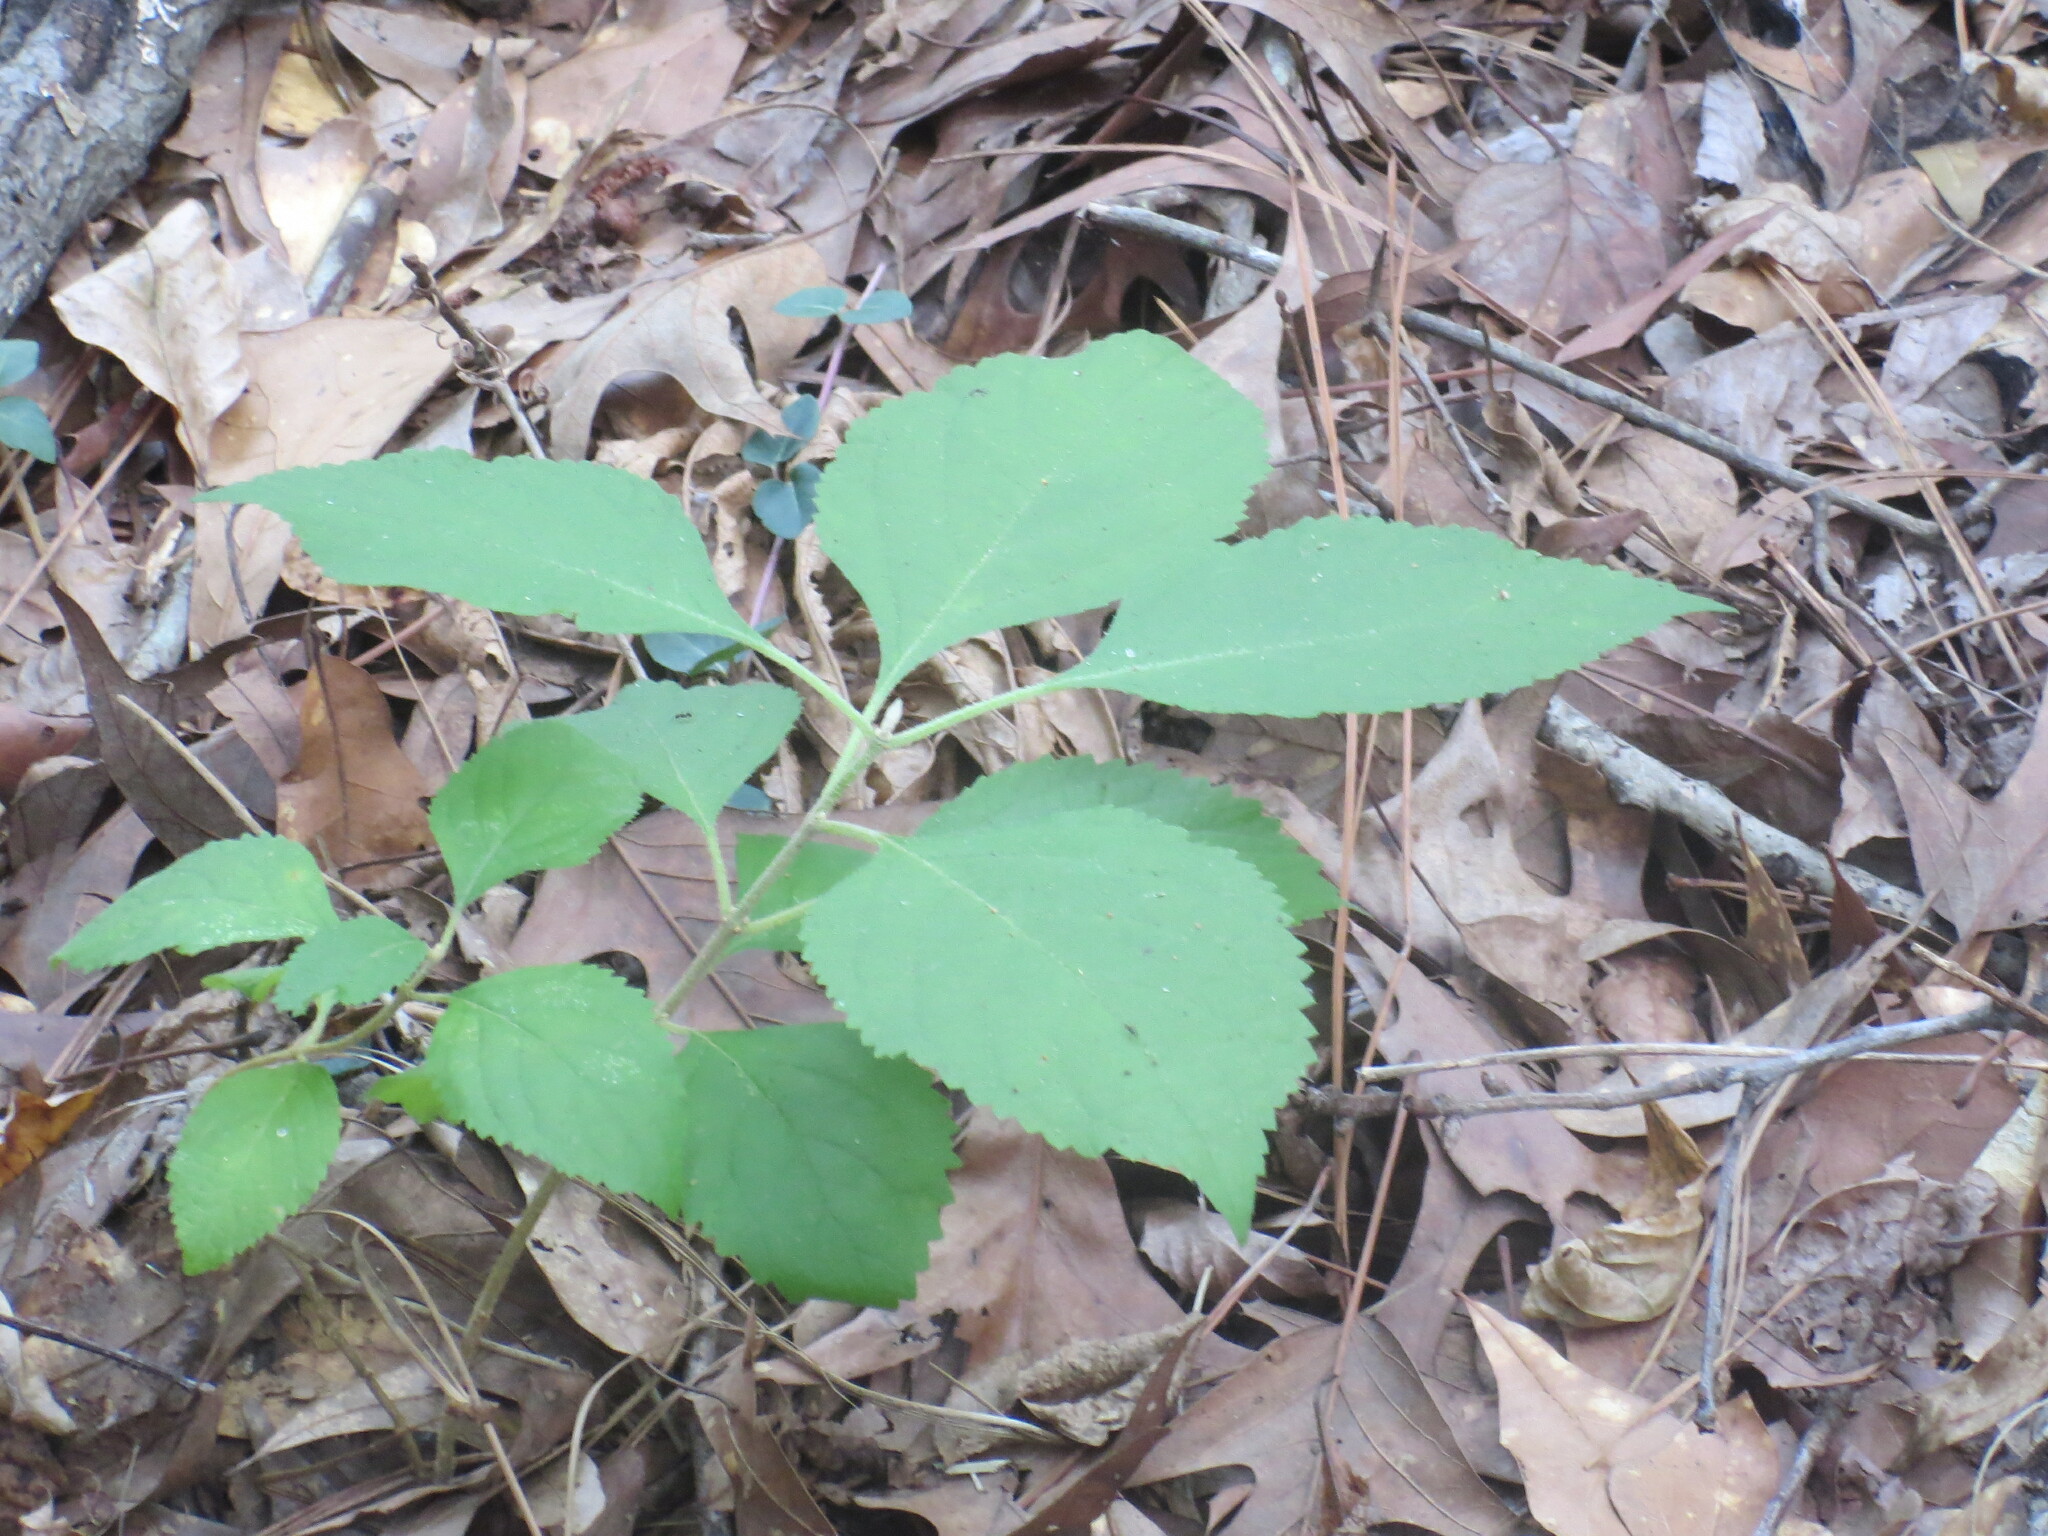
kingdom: Plantae
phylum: Tracheophyta
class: Magnoliopsida
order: Lamiales
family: Lamiaceae
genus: Callicarpa
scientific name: Callicarpa americana
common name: American beautyberry
